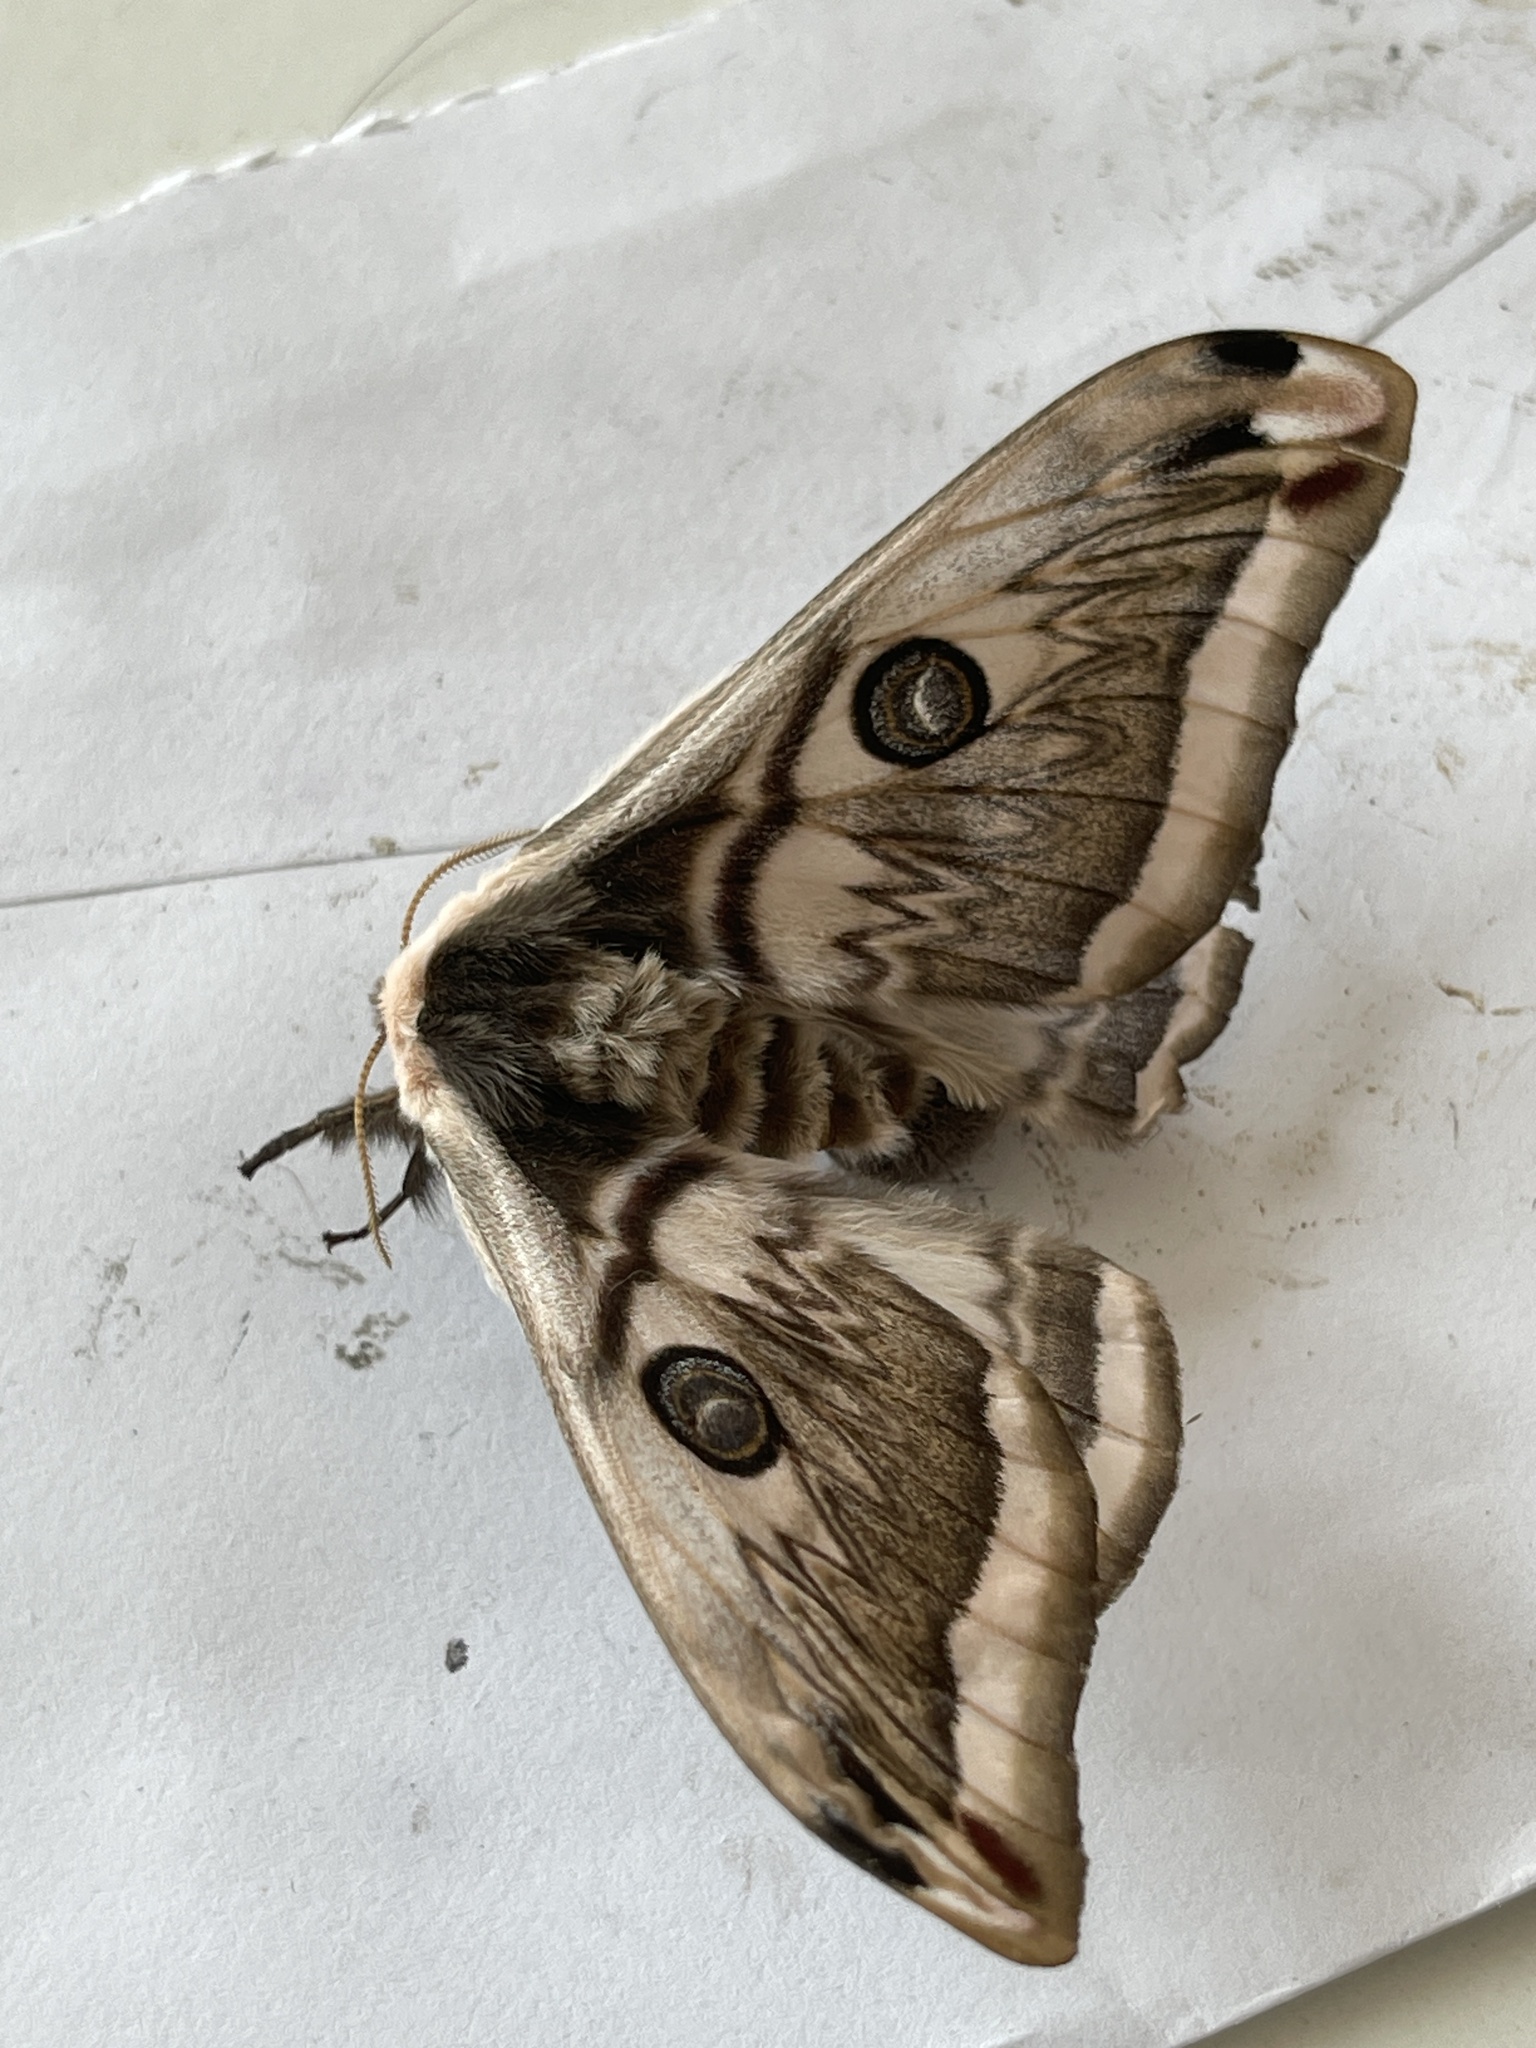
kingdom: Animalia
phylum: Arthropoda
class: Insecta
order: Lepidoptera
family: Saturniidae
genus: Saturnia
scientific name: Saturnia pyretorum
